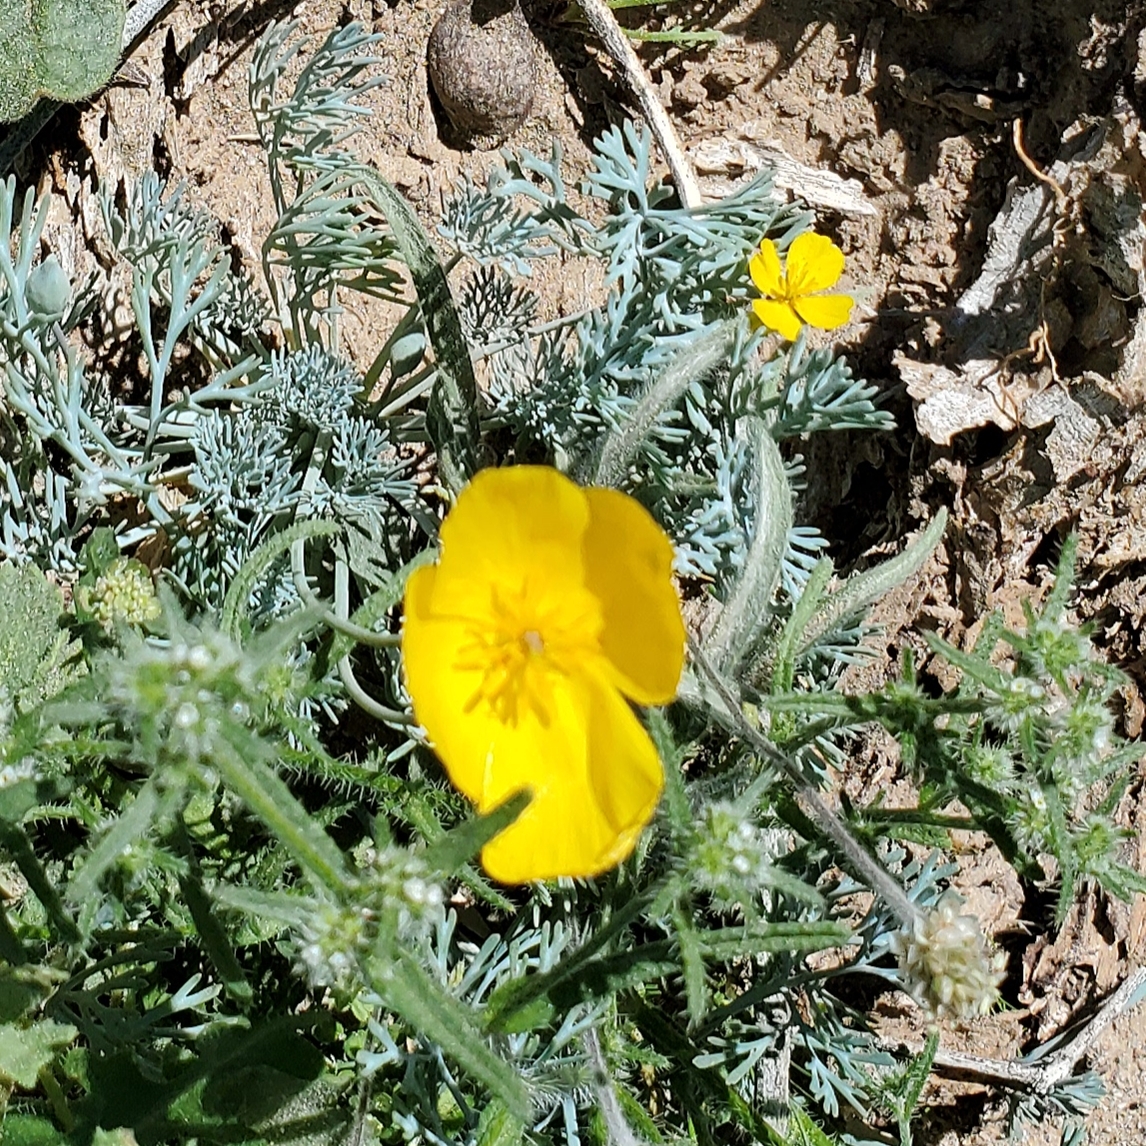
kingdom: Plantae
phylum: Tracheophyta
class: Magnoliopsida
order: Ranunculales
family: Papaveraceae
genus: Eschscholzia
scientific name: Eschscholzia minutiflora
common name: Small-flower california-poppy
